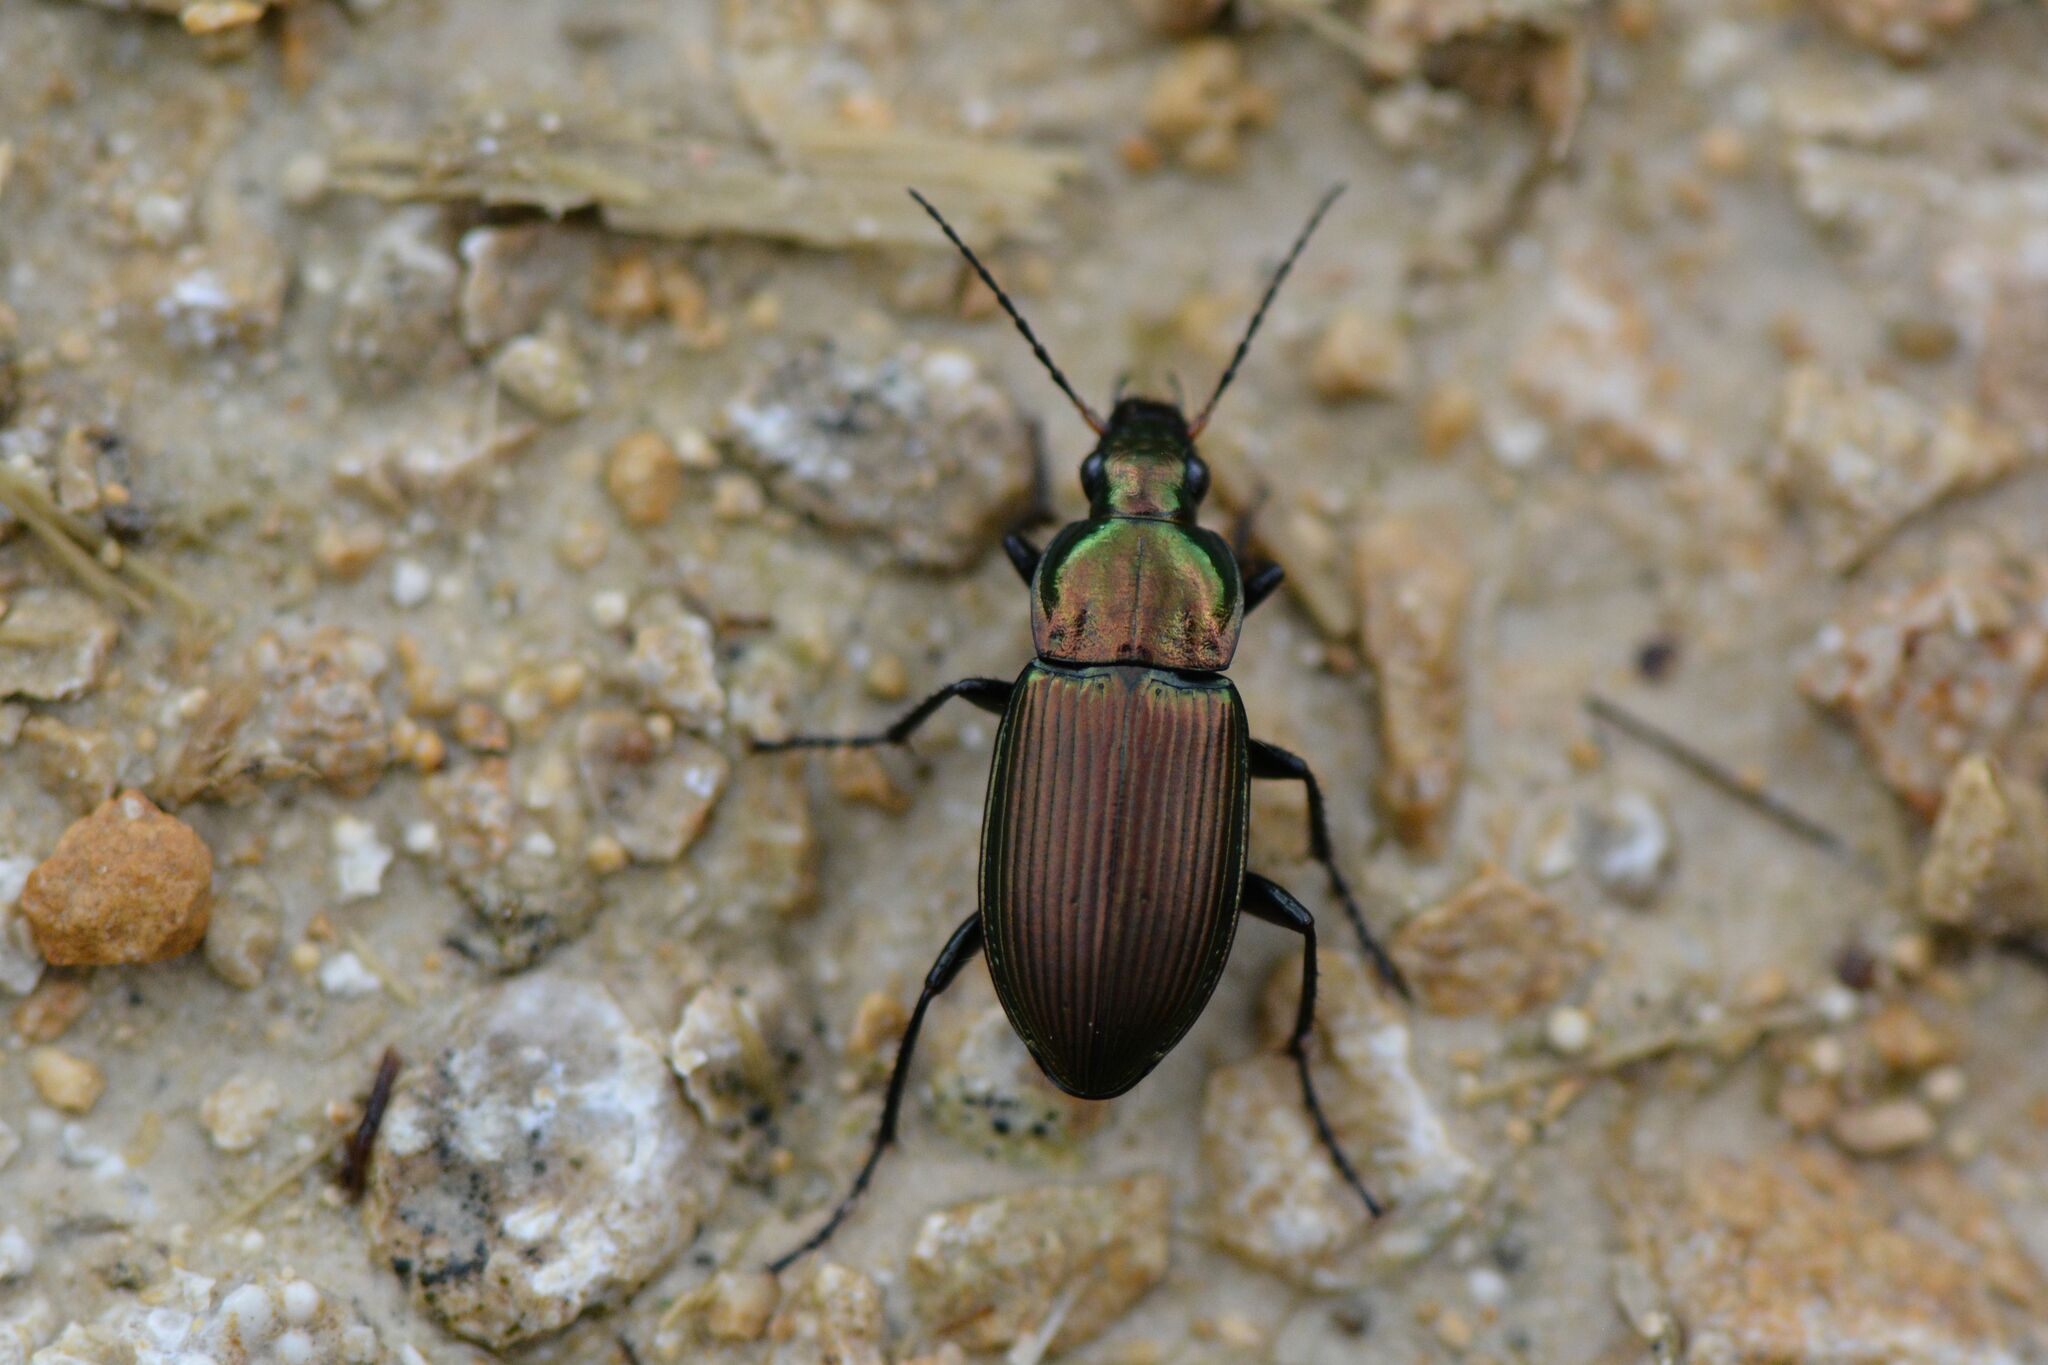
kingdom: Animalia
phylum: Arthropoda
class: Insecta
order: Coleoptera
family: Carabidae
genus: Poecilus
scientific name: Poecilus cupreus
